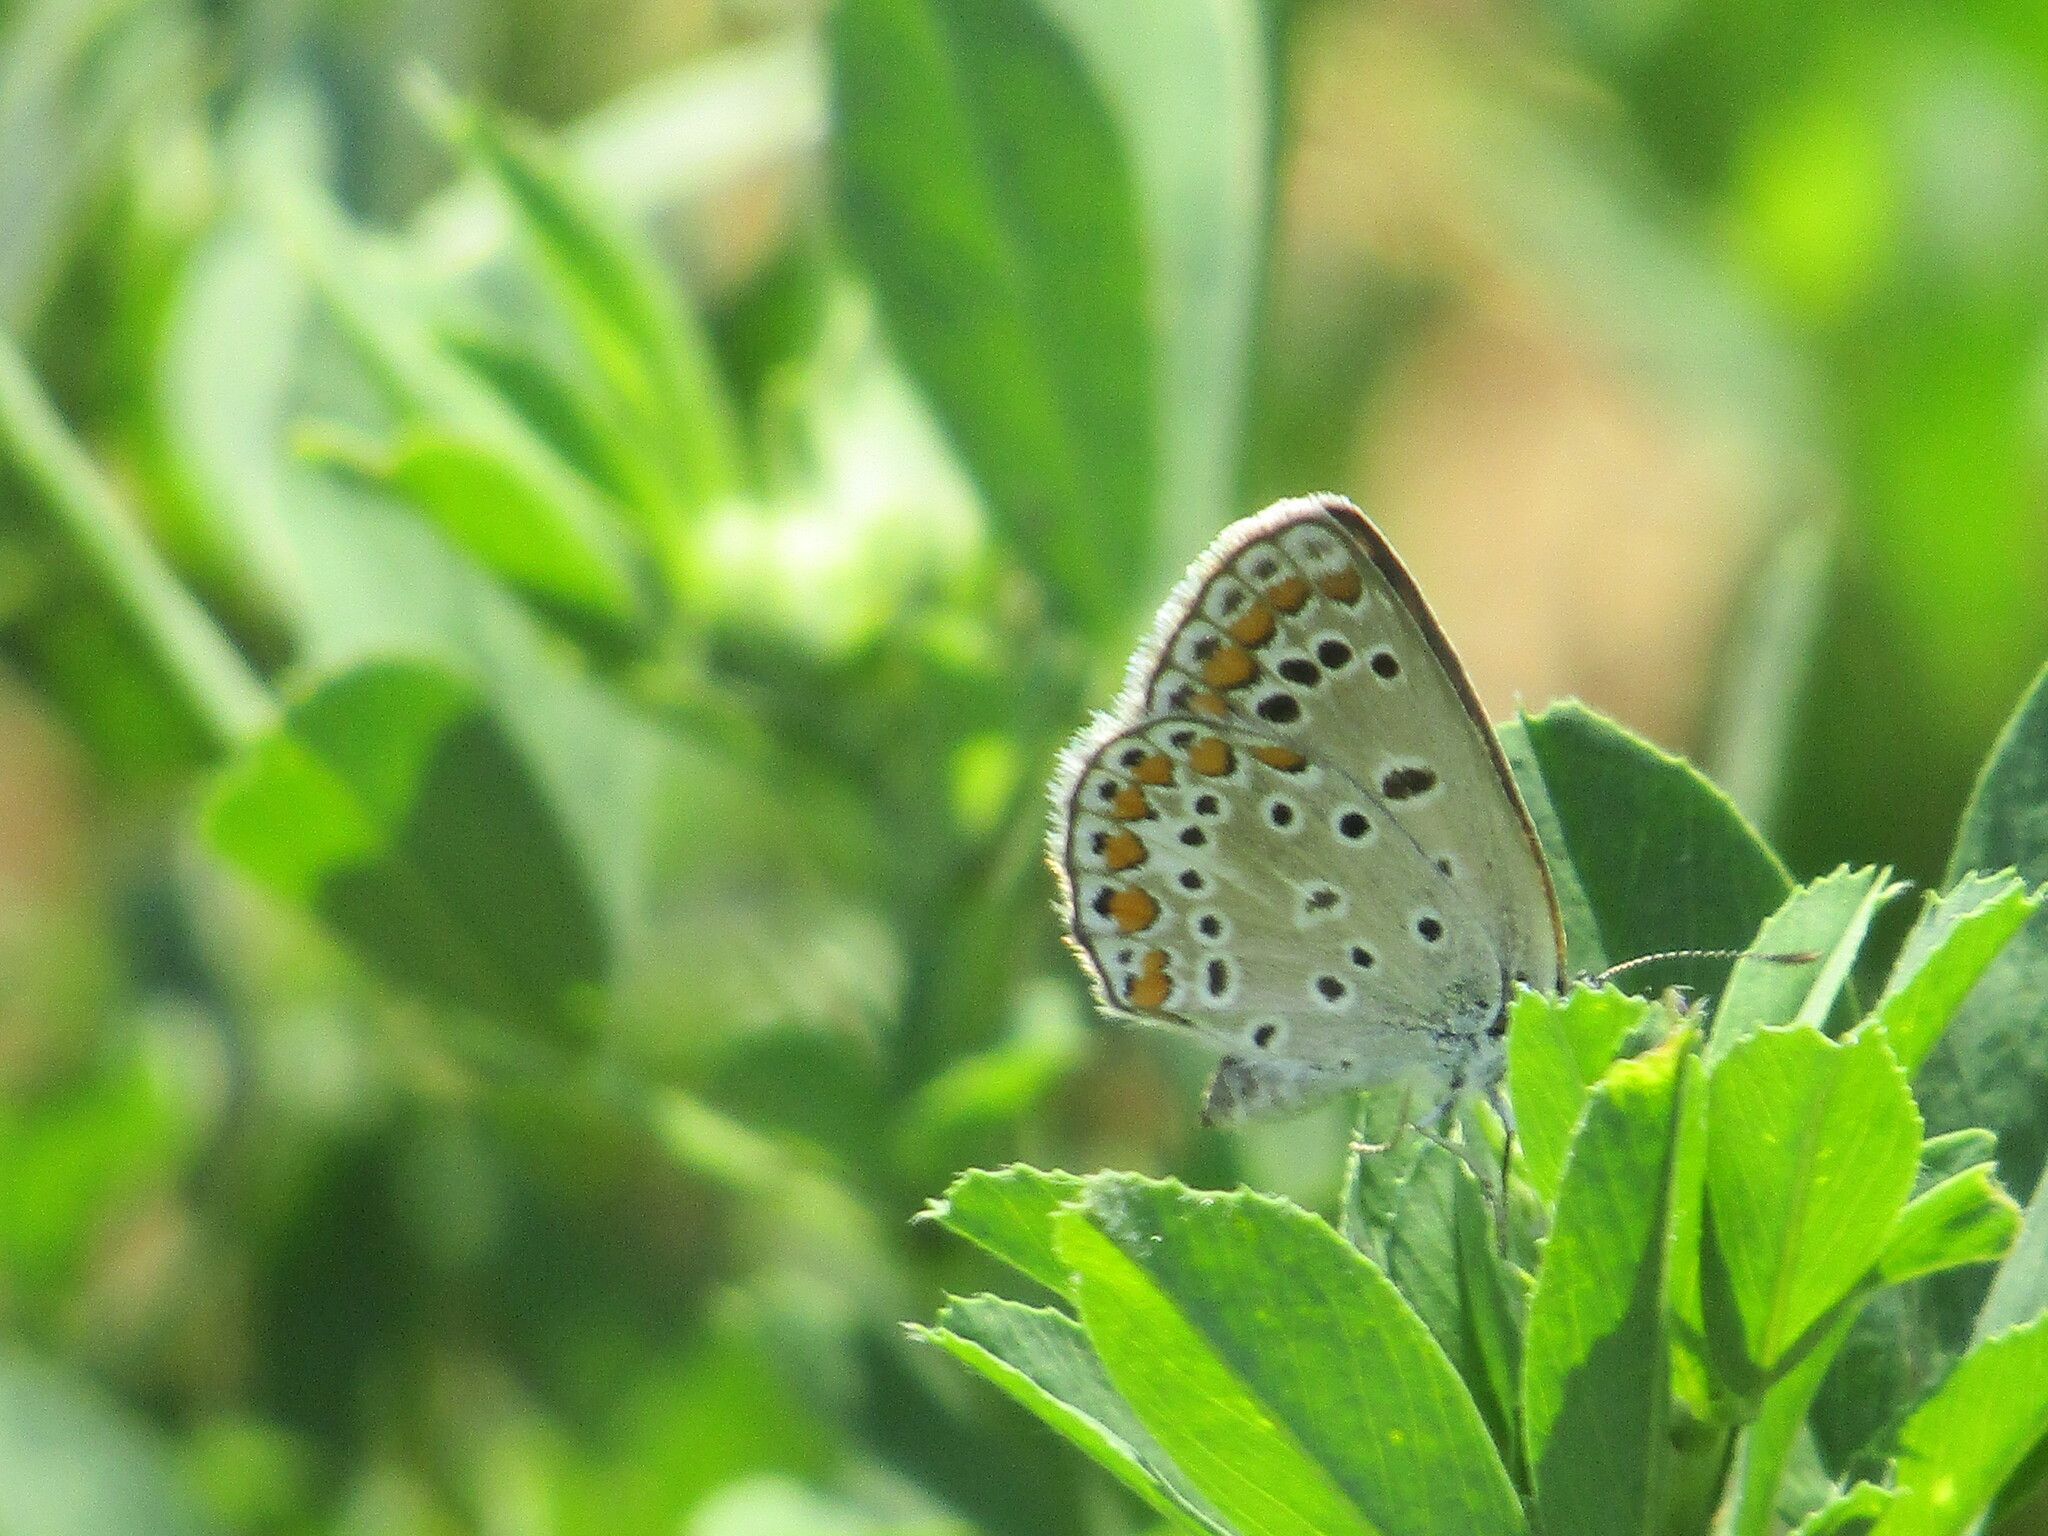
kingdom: Animalia
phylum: Arthropoda
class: Insecta
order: Lepidoptera
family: Lycaenidae
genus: Polyommatus
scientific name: Polyommatus icarus
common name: Common blue
